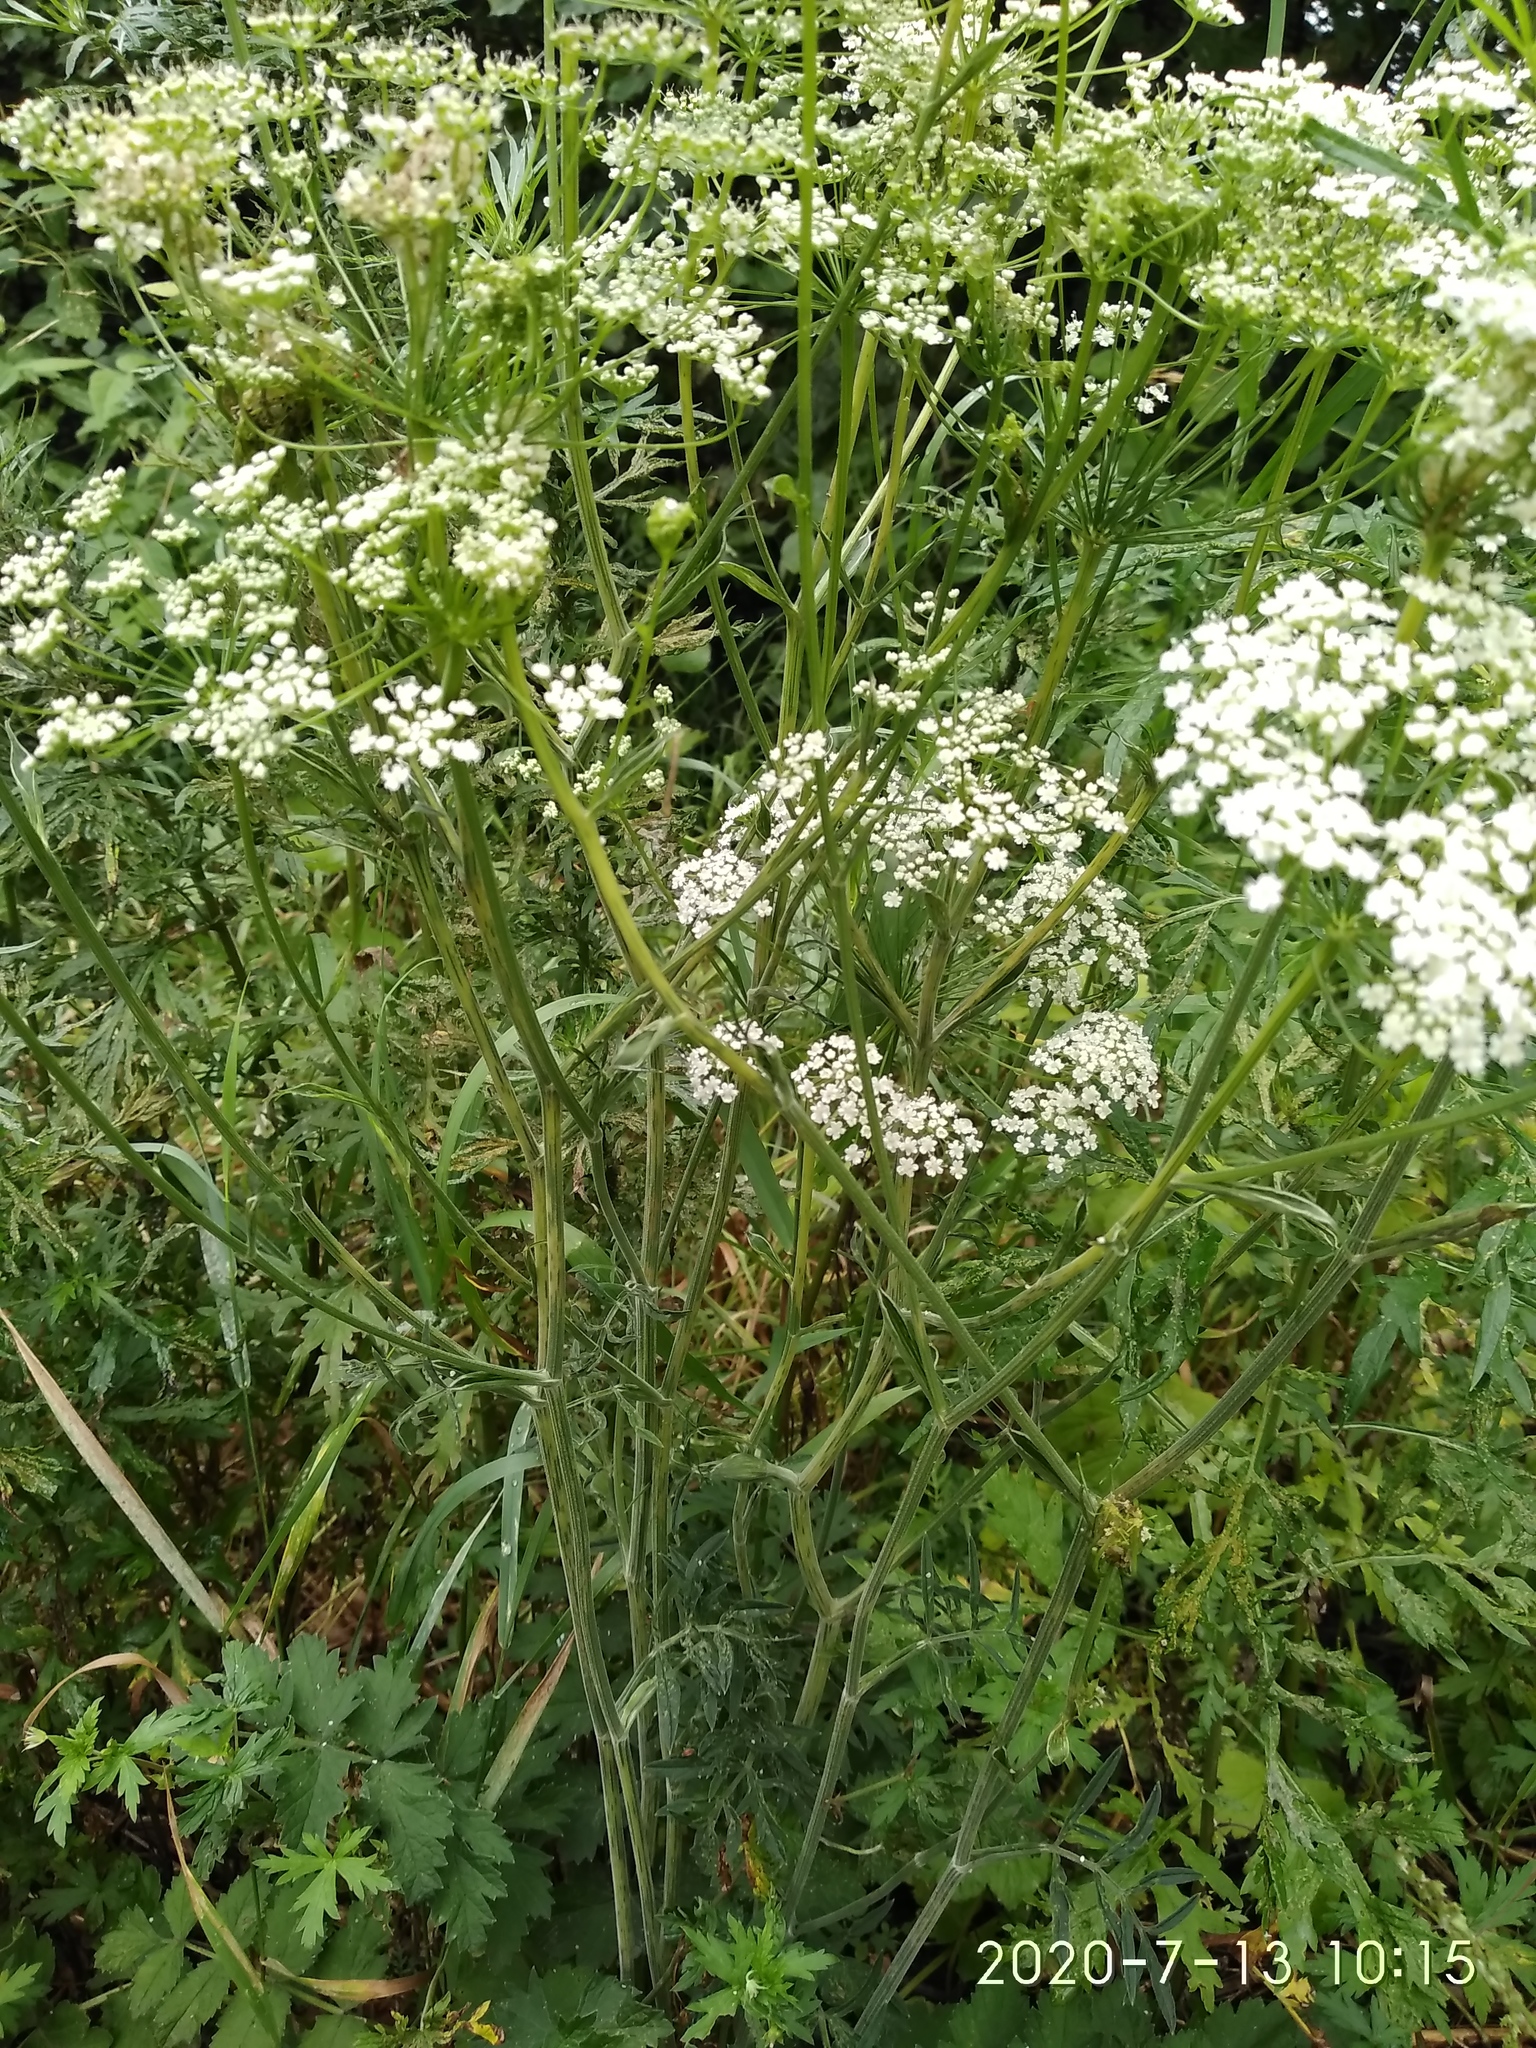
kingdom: Plantae
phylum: Tracheophyta
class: Magnoliopsida
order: Apiales
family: Apiaceae
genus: Pimpinella
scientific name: Pimpinella saxifraga
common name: Burnet-saxifrage
